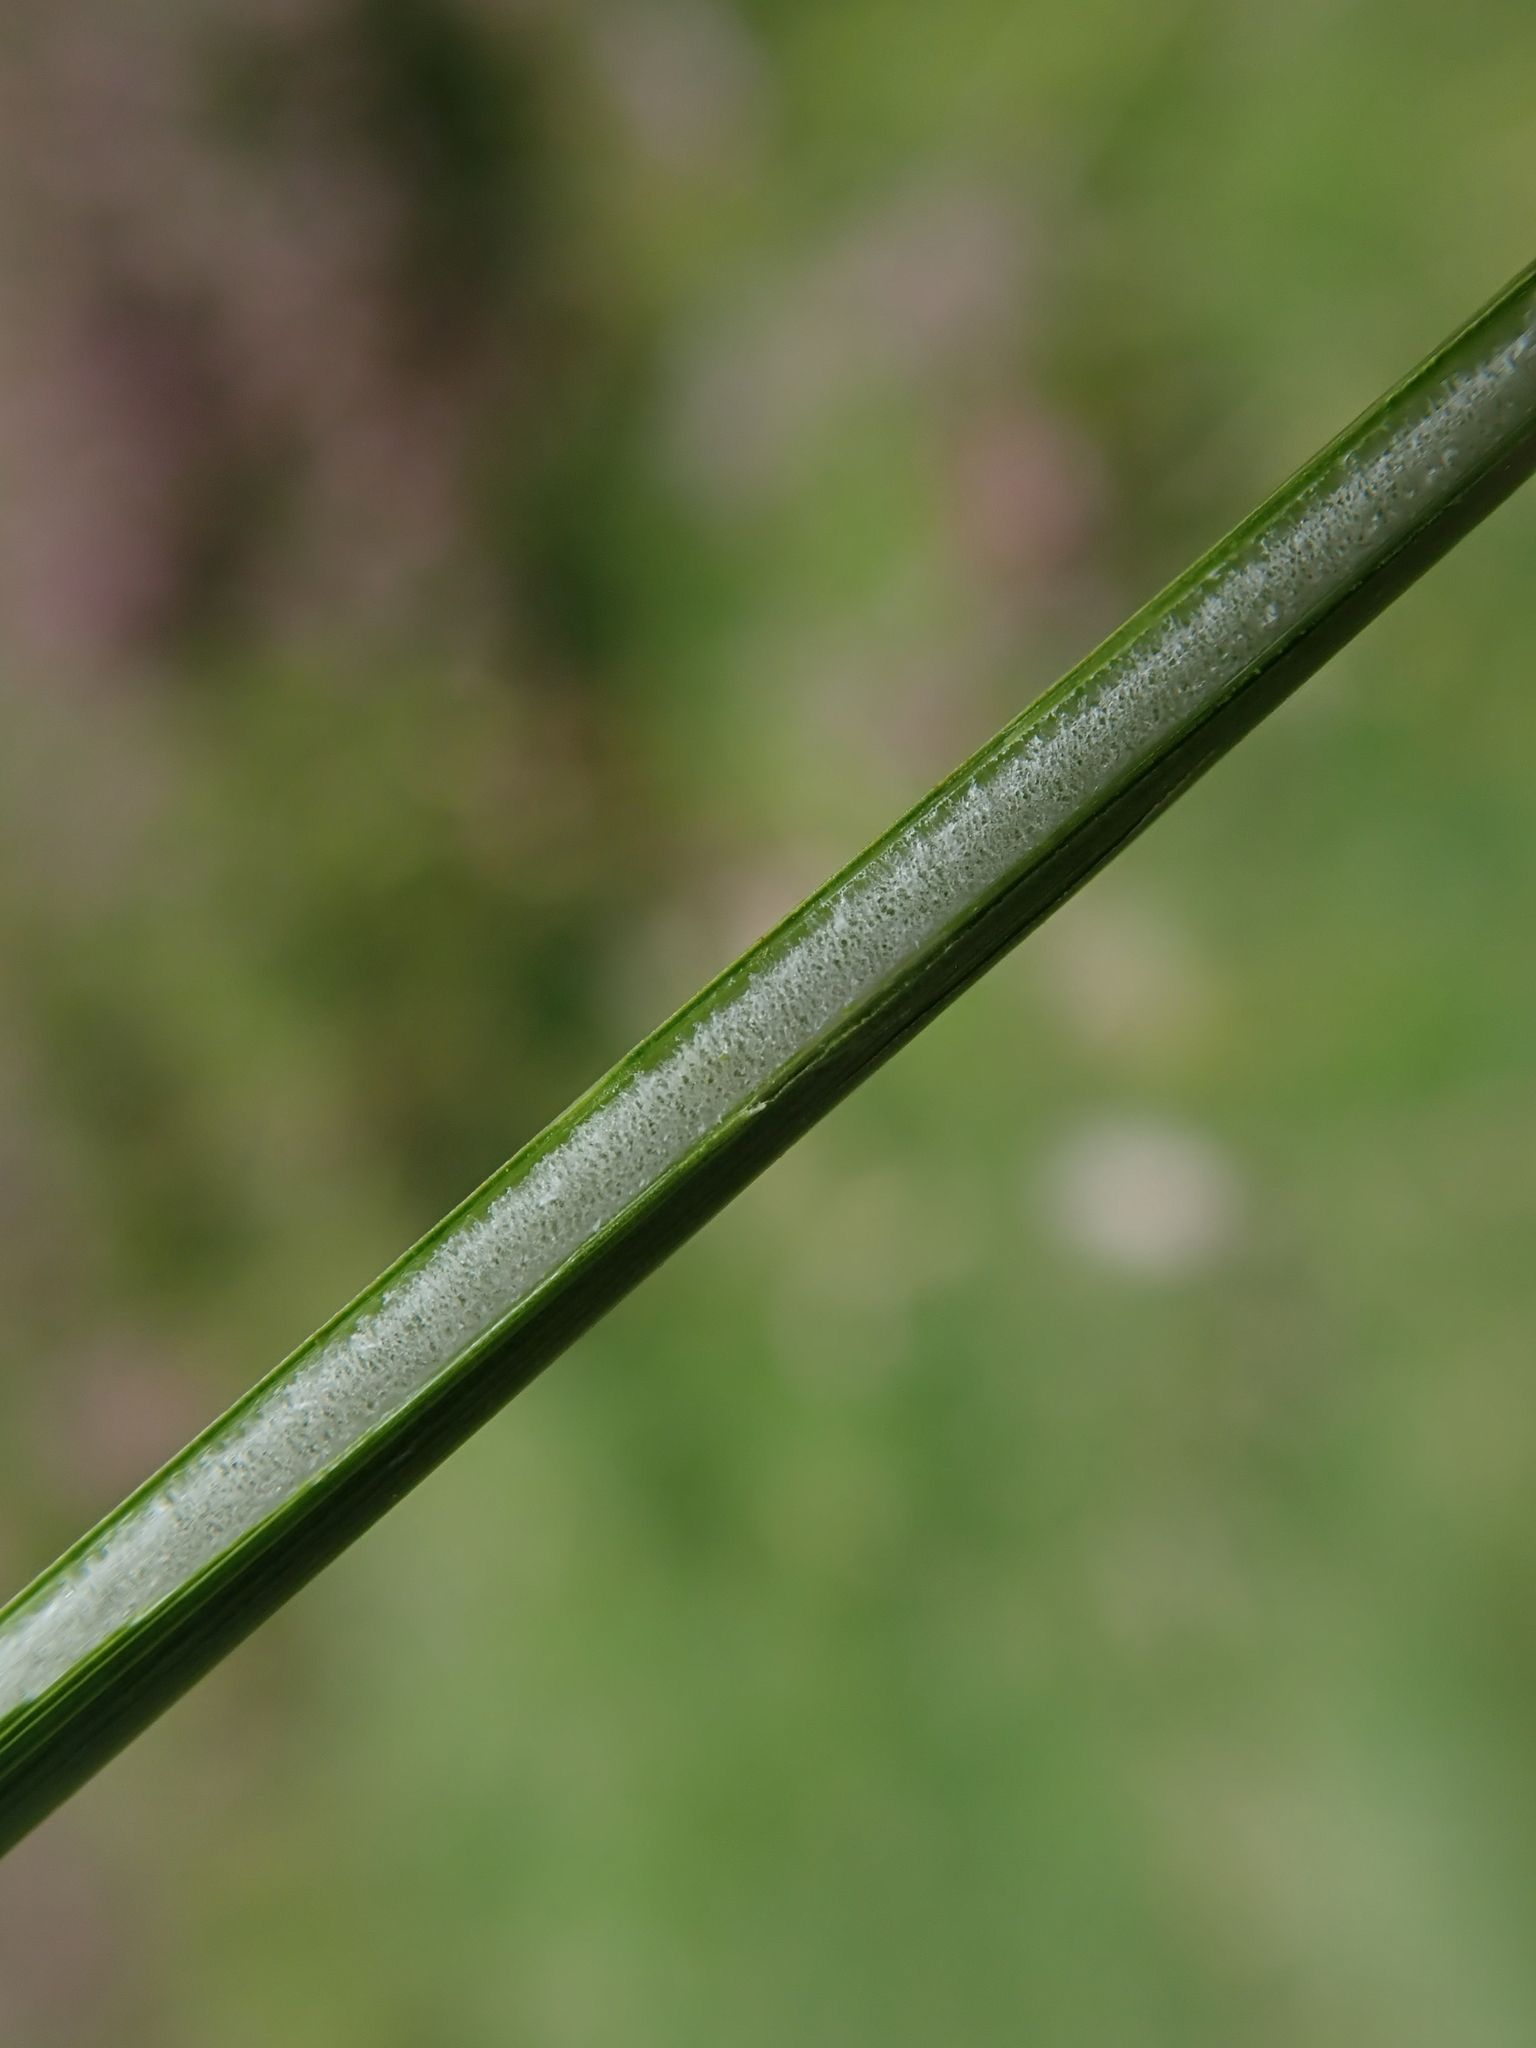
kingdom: Plantae
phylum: Tracheophyta
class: Liliopsida
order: Poales
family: Juncaceae
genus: Juncus
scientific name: Juncus effusus
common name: Soft rush
